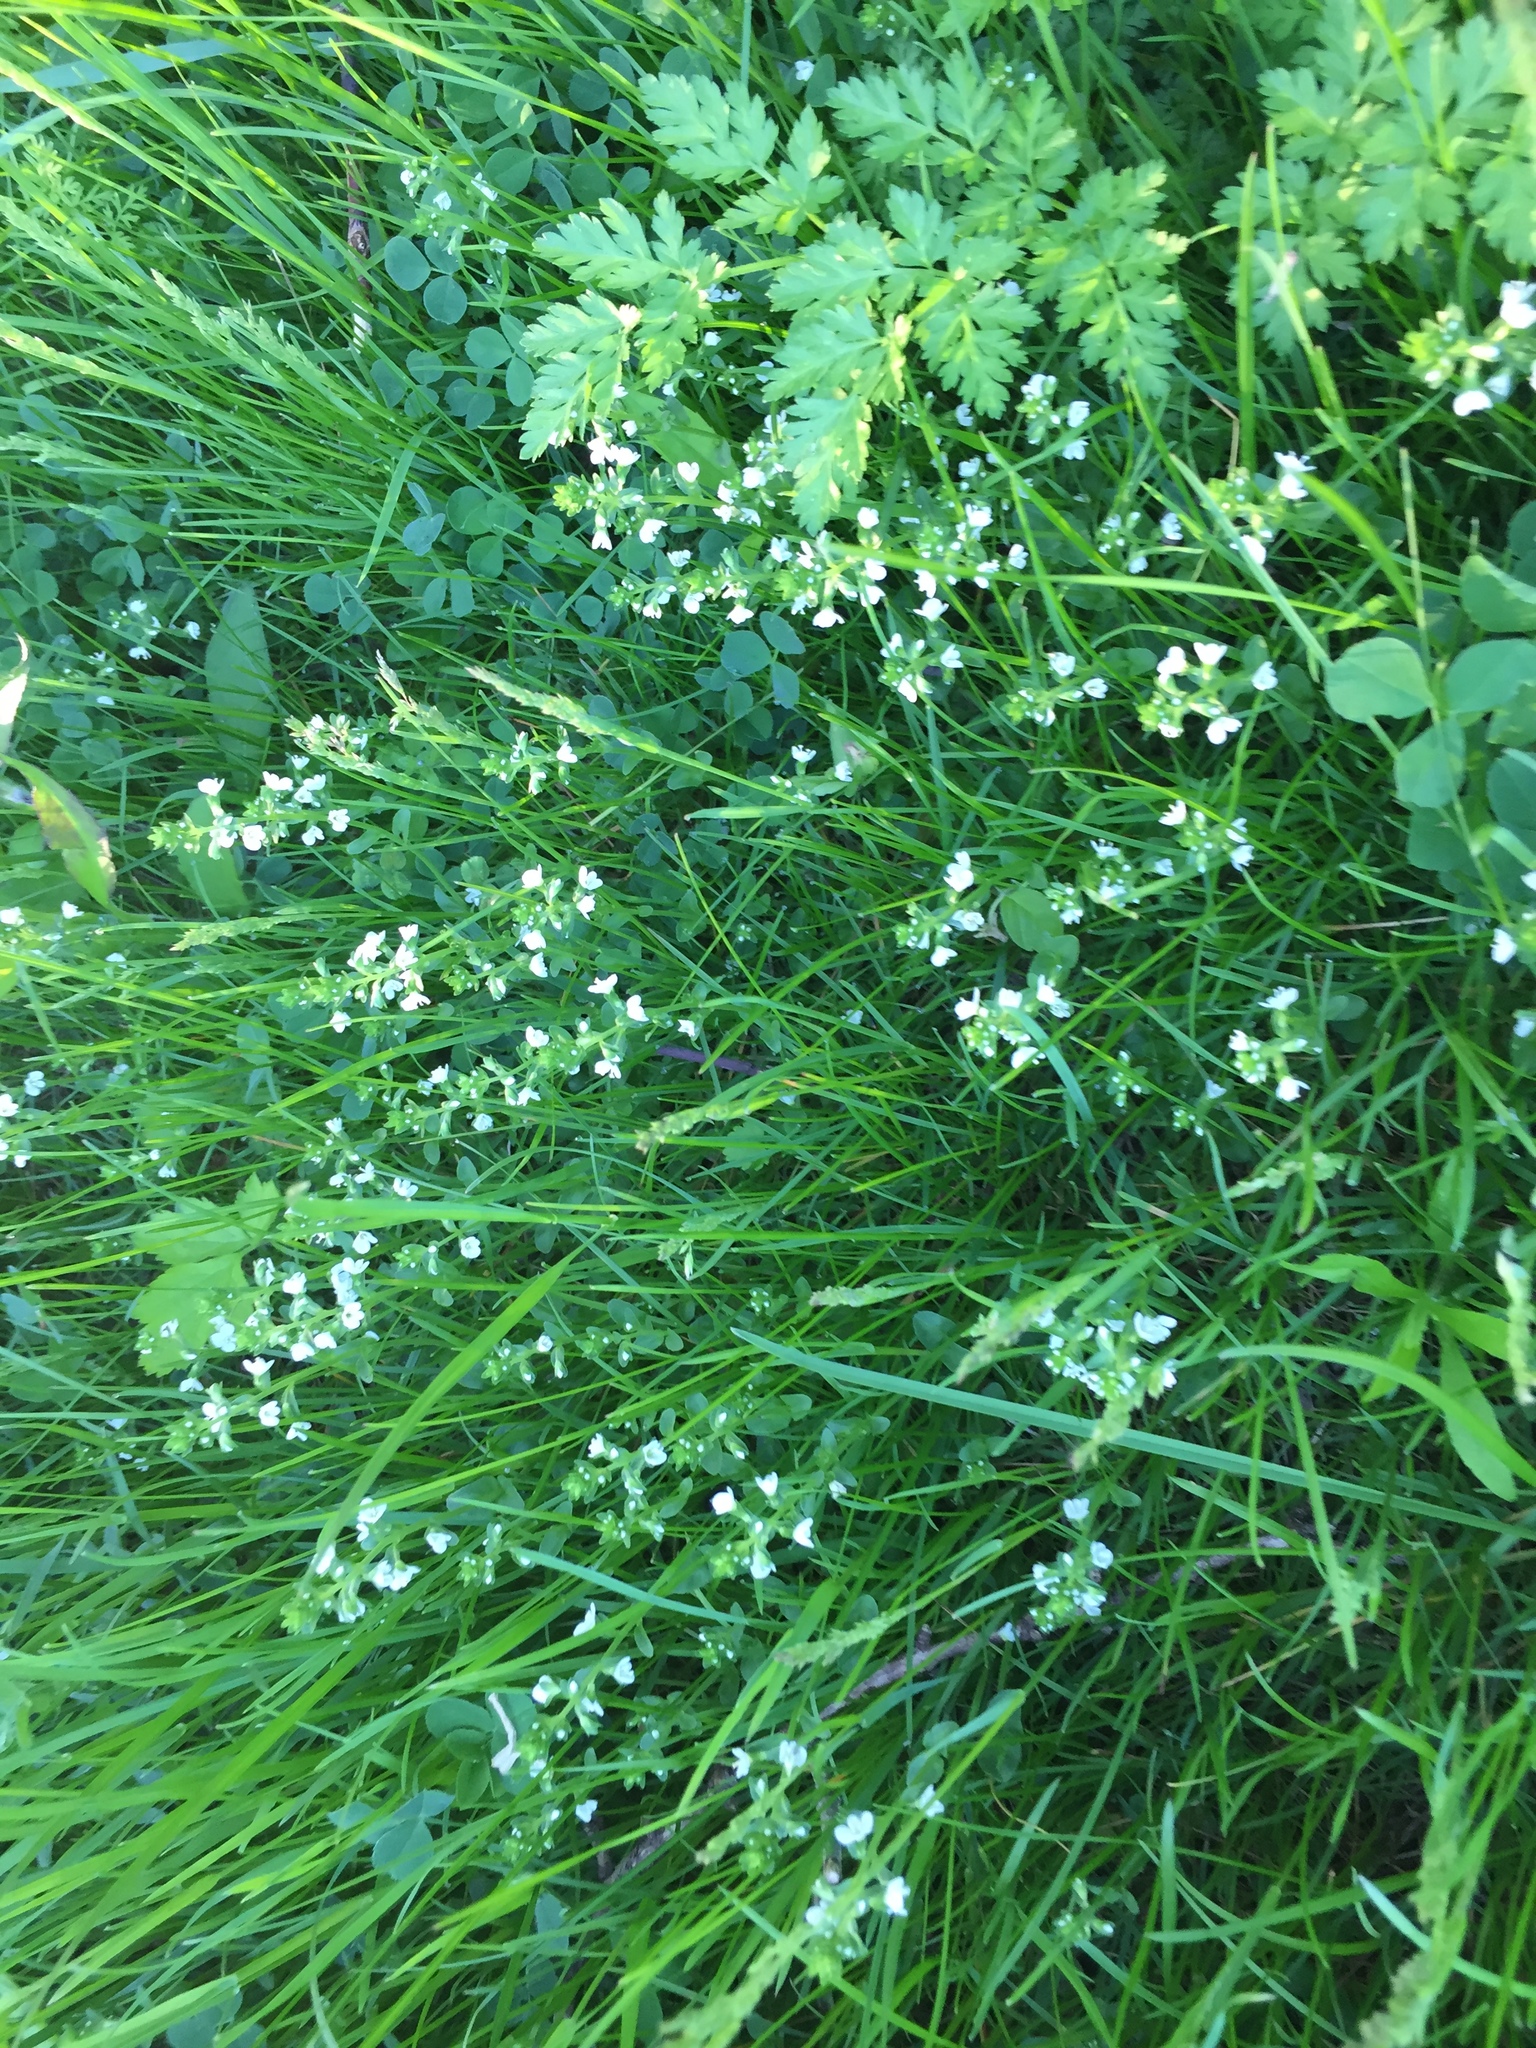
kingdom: Plantae
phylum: Tracheophyta
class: Magnoliopsida
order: Lamiales
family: Plantaginaceae
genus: Veronica
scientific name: Veronica serpyllifolia
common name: Thyme-leaved speedwell
